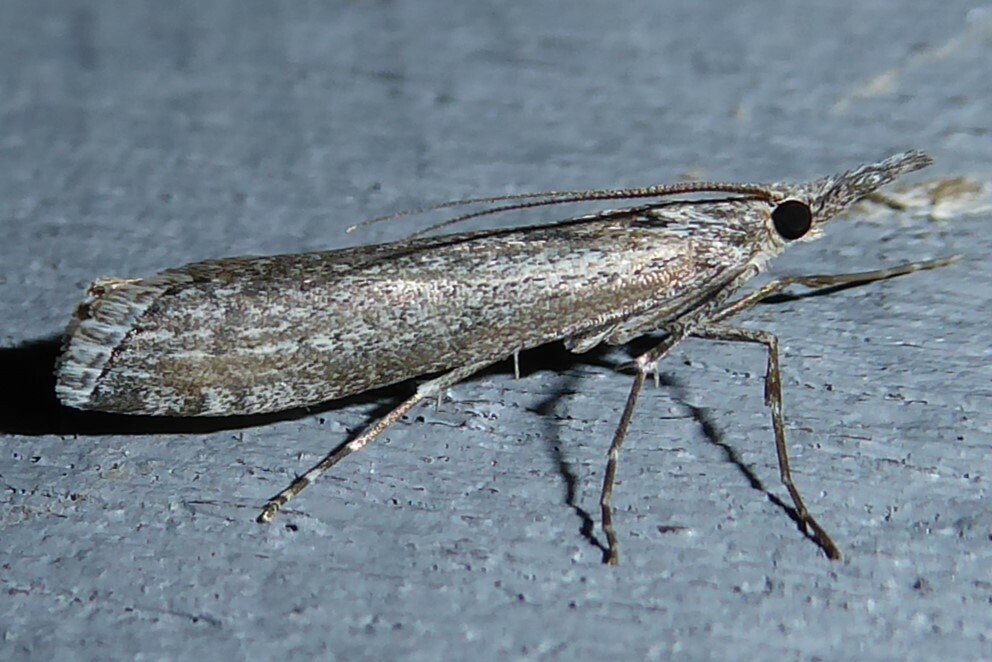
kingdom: Animalia
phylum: Arthropoda
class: Insecta
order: Lepidoptera
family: Crambidae
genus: Orocrambus
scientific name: Orocrambus cyclopicus
